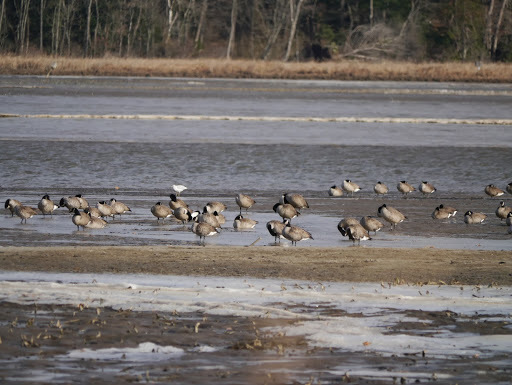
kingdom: Animalia
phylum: Chordata
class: Aves
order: Anseriformes
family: Anatidae
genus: Branta
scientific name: Branta canadensis
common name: Canada goose
